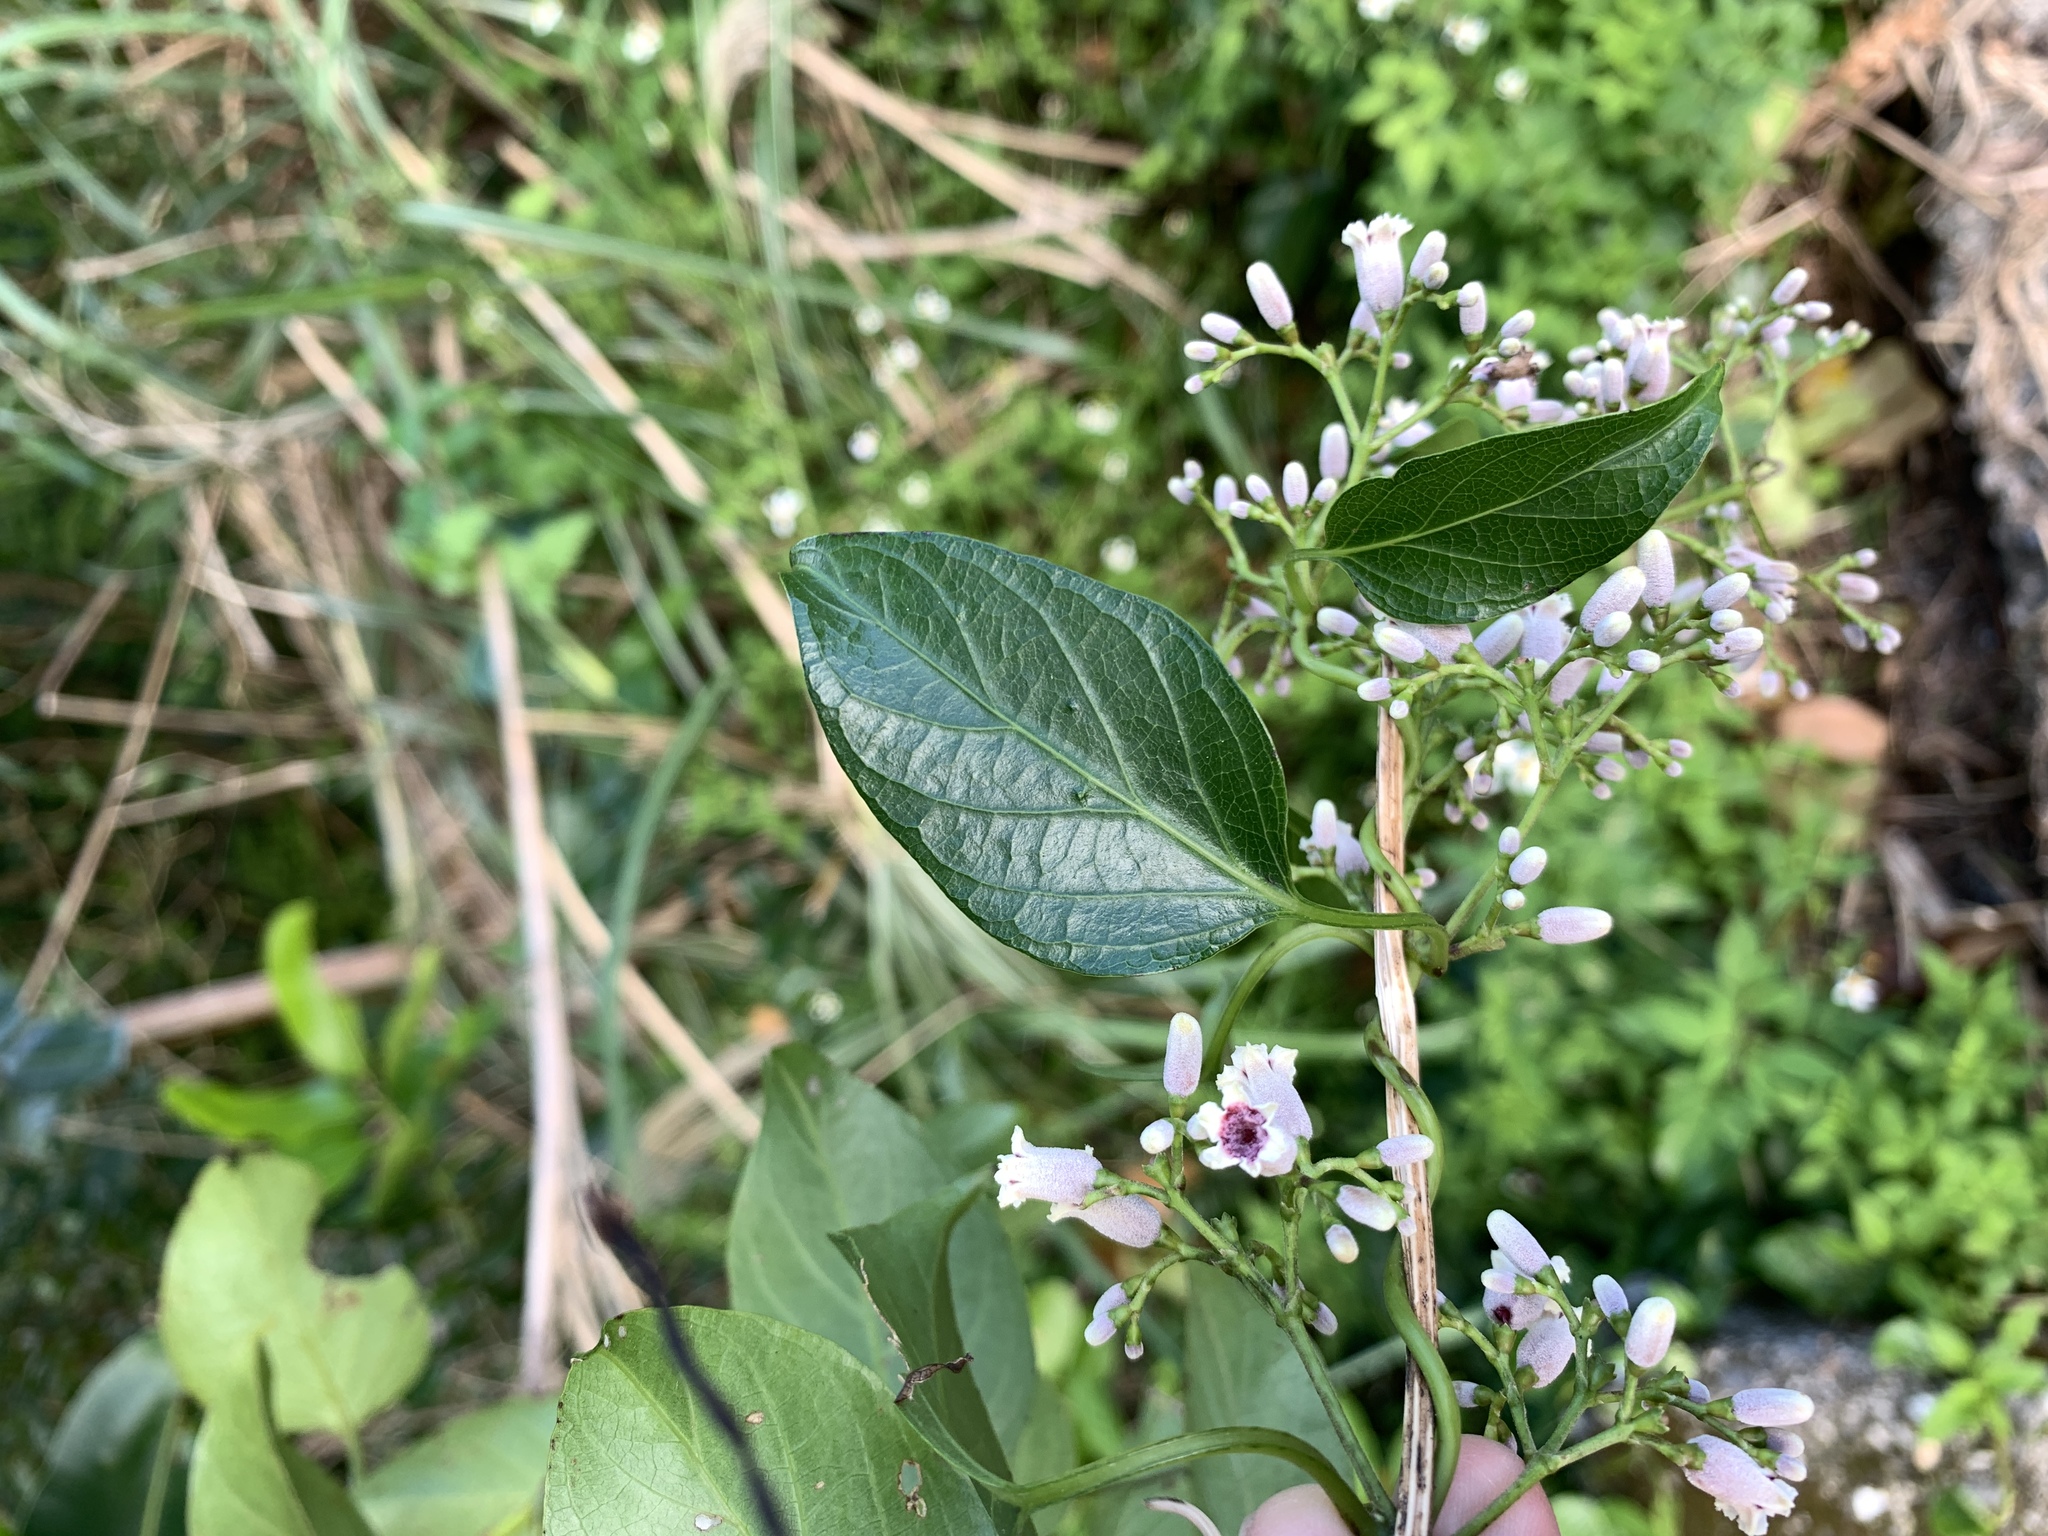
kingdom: Plantae
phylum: Tracheophyta
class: Magnoliopsida
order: Gentianales
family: Rubiaceae
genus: Paederia
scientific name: Paederia foetida
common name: Stinkvine
